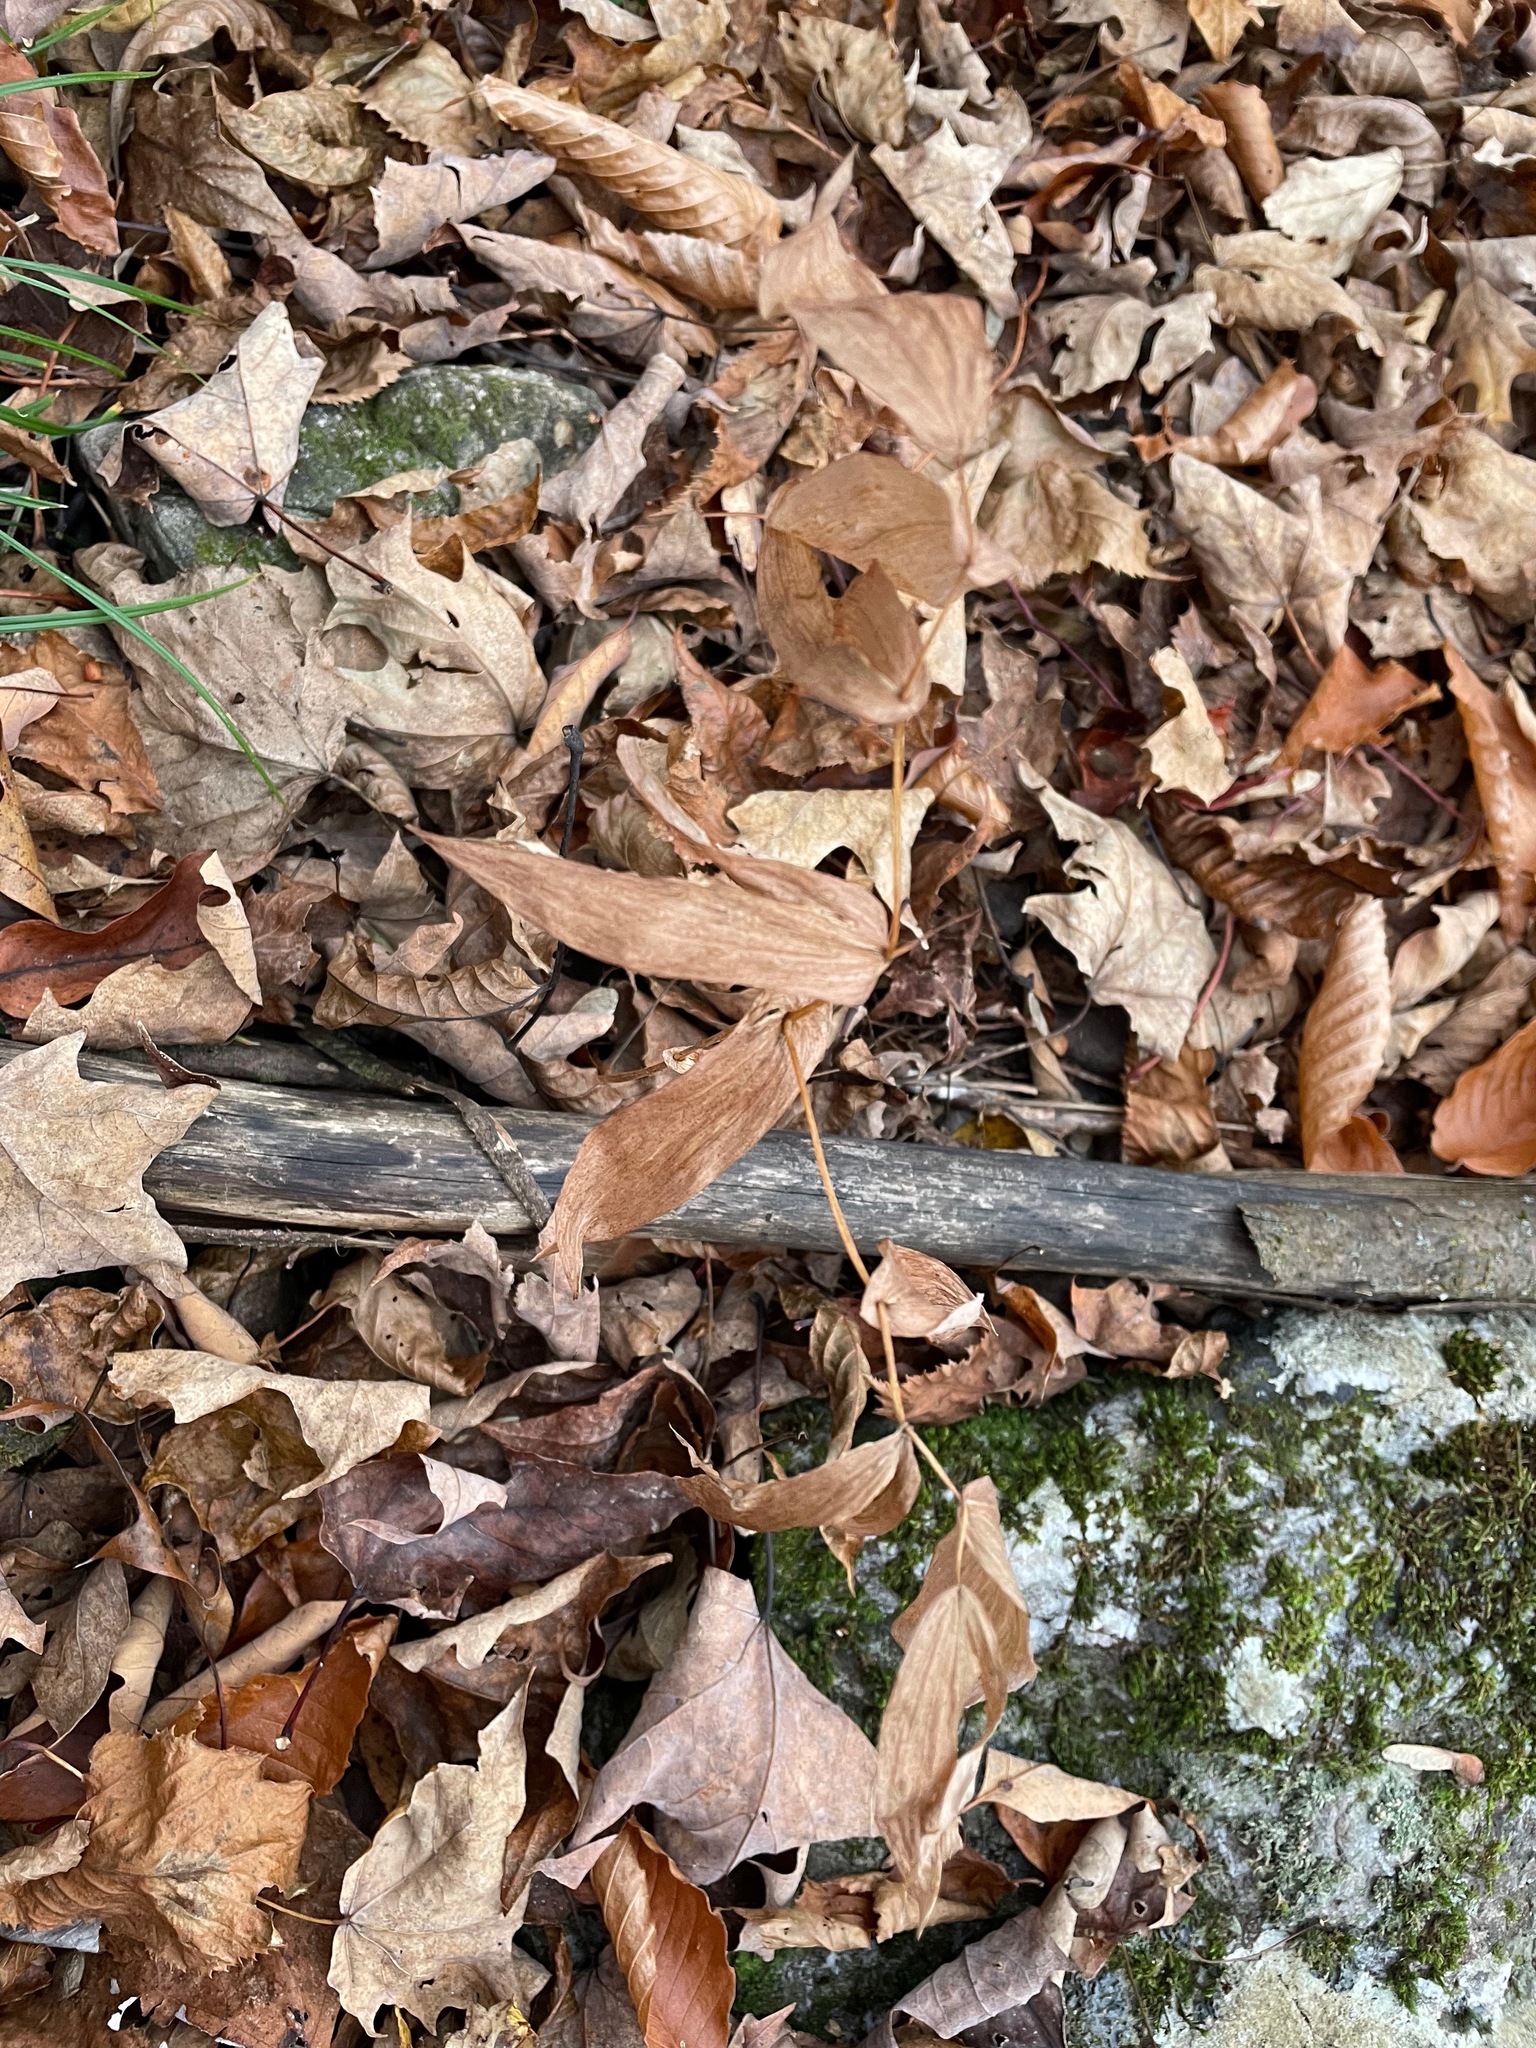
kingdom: Plantae
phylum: Tracheophyta
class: Liliopsida
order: Liliales
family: Colchicaceae
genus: Uvularia
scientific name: Uvularia grandiflora
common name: Bellwort
